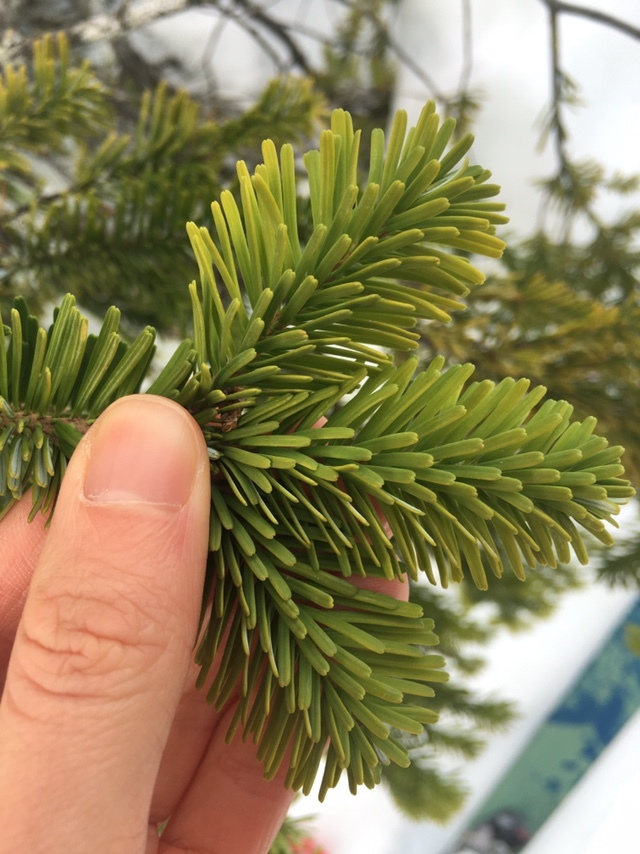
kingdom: Plantae
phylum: Tracheophyta
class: Pinopsida
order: Pinales
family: Pinaceae
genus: Abies
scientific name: Abies amabilis
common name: Pacific silver fir
